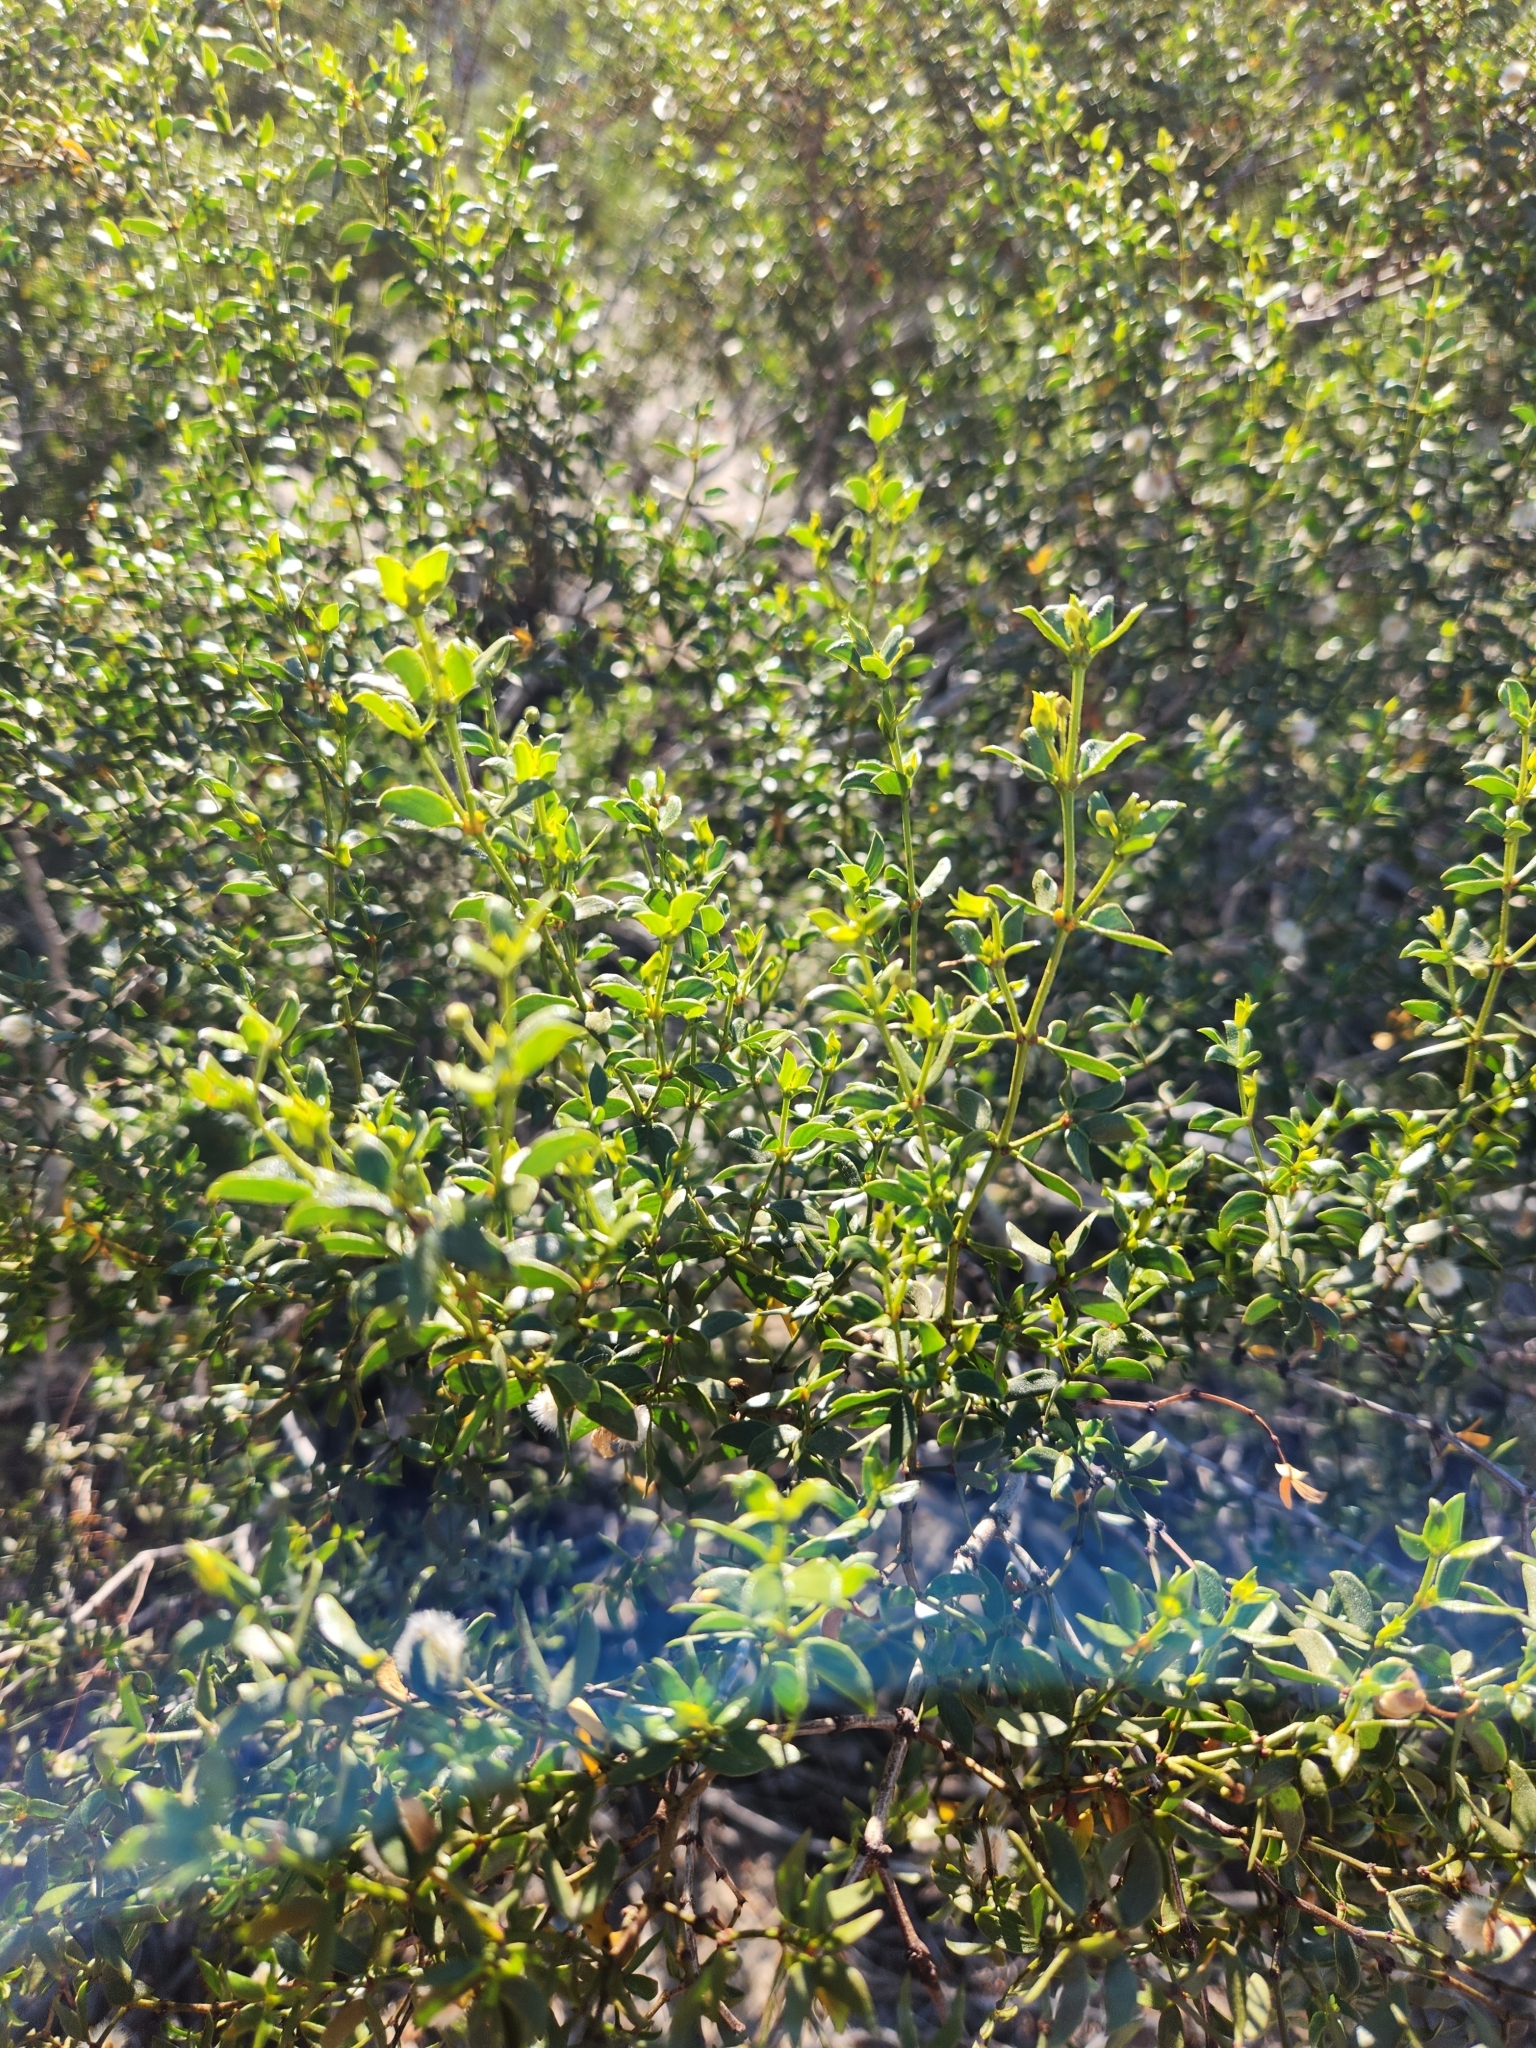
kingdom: Plantae
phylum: Tracheophyta
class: Magnoliopsida
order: Zygophyllales
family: Zygophyllaceae
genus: Larrea
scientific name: Larrea tridentata
